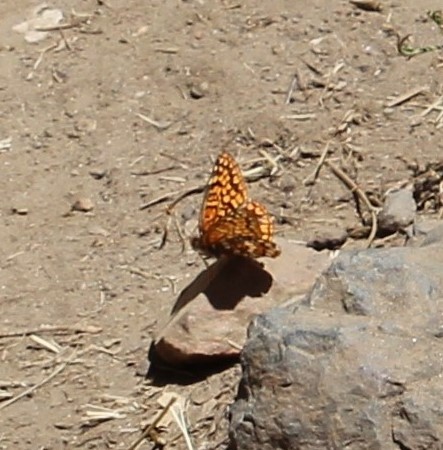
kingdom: Animalia
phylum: Arthropoda
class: Insecta
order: Lepidoptera
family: Nymphalidae
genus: Chlosyne
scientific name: Chlosyne palla
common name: Northern checkerspot
